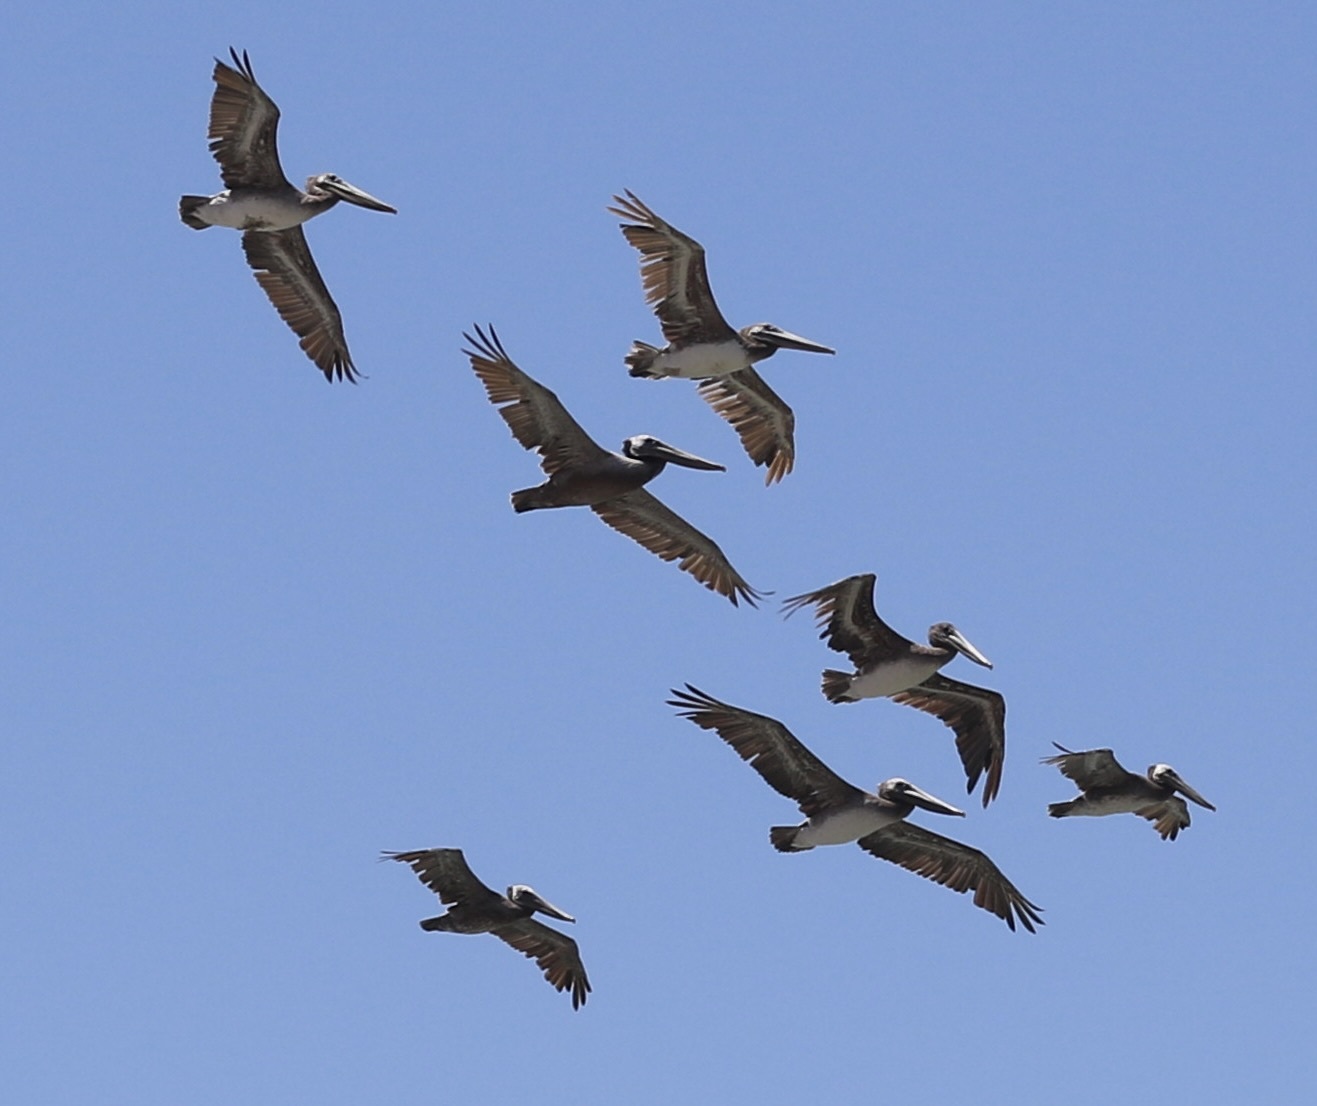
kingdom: Animalia
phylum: Chordata
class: Aves
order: Pelecaniformes
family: Pelecanidae
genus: Pelecanus
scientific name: Pelecanus occidentalis
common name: Brown pelican
